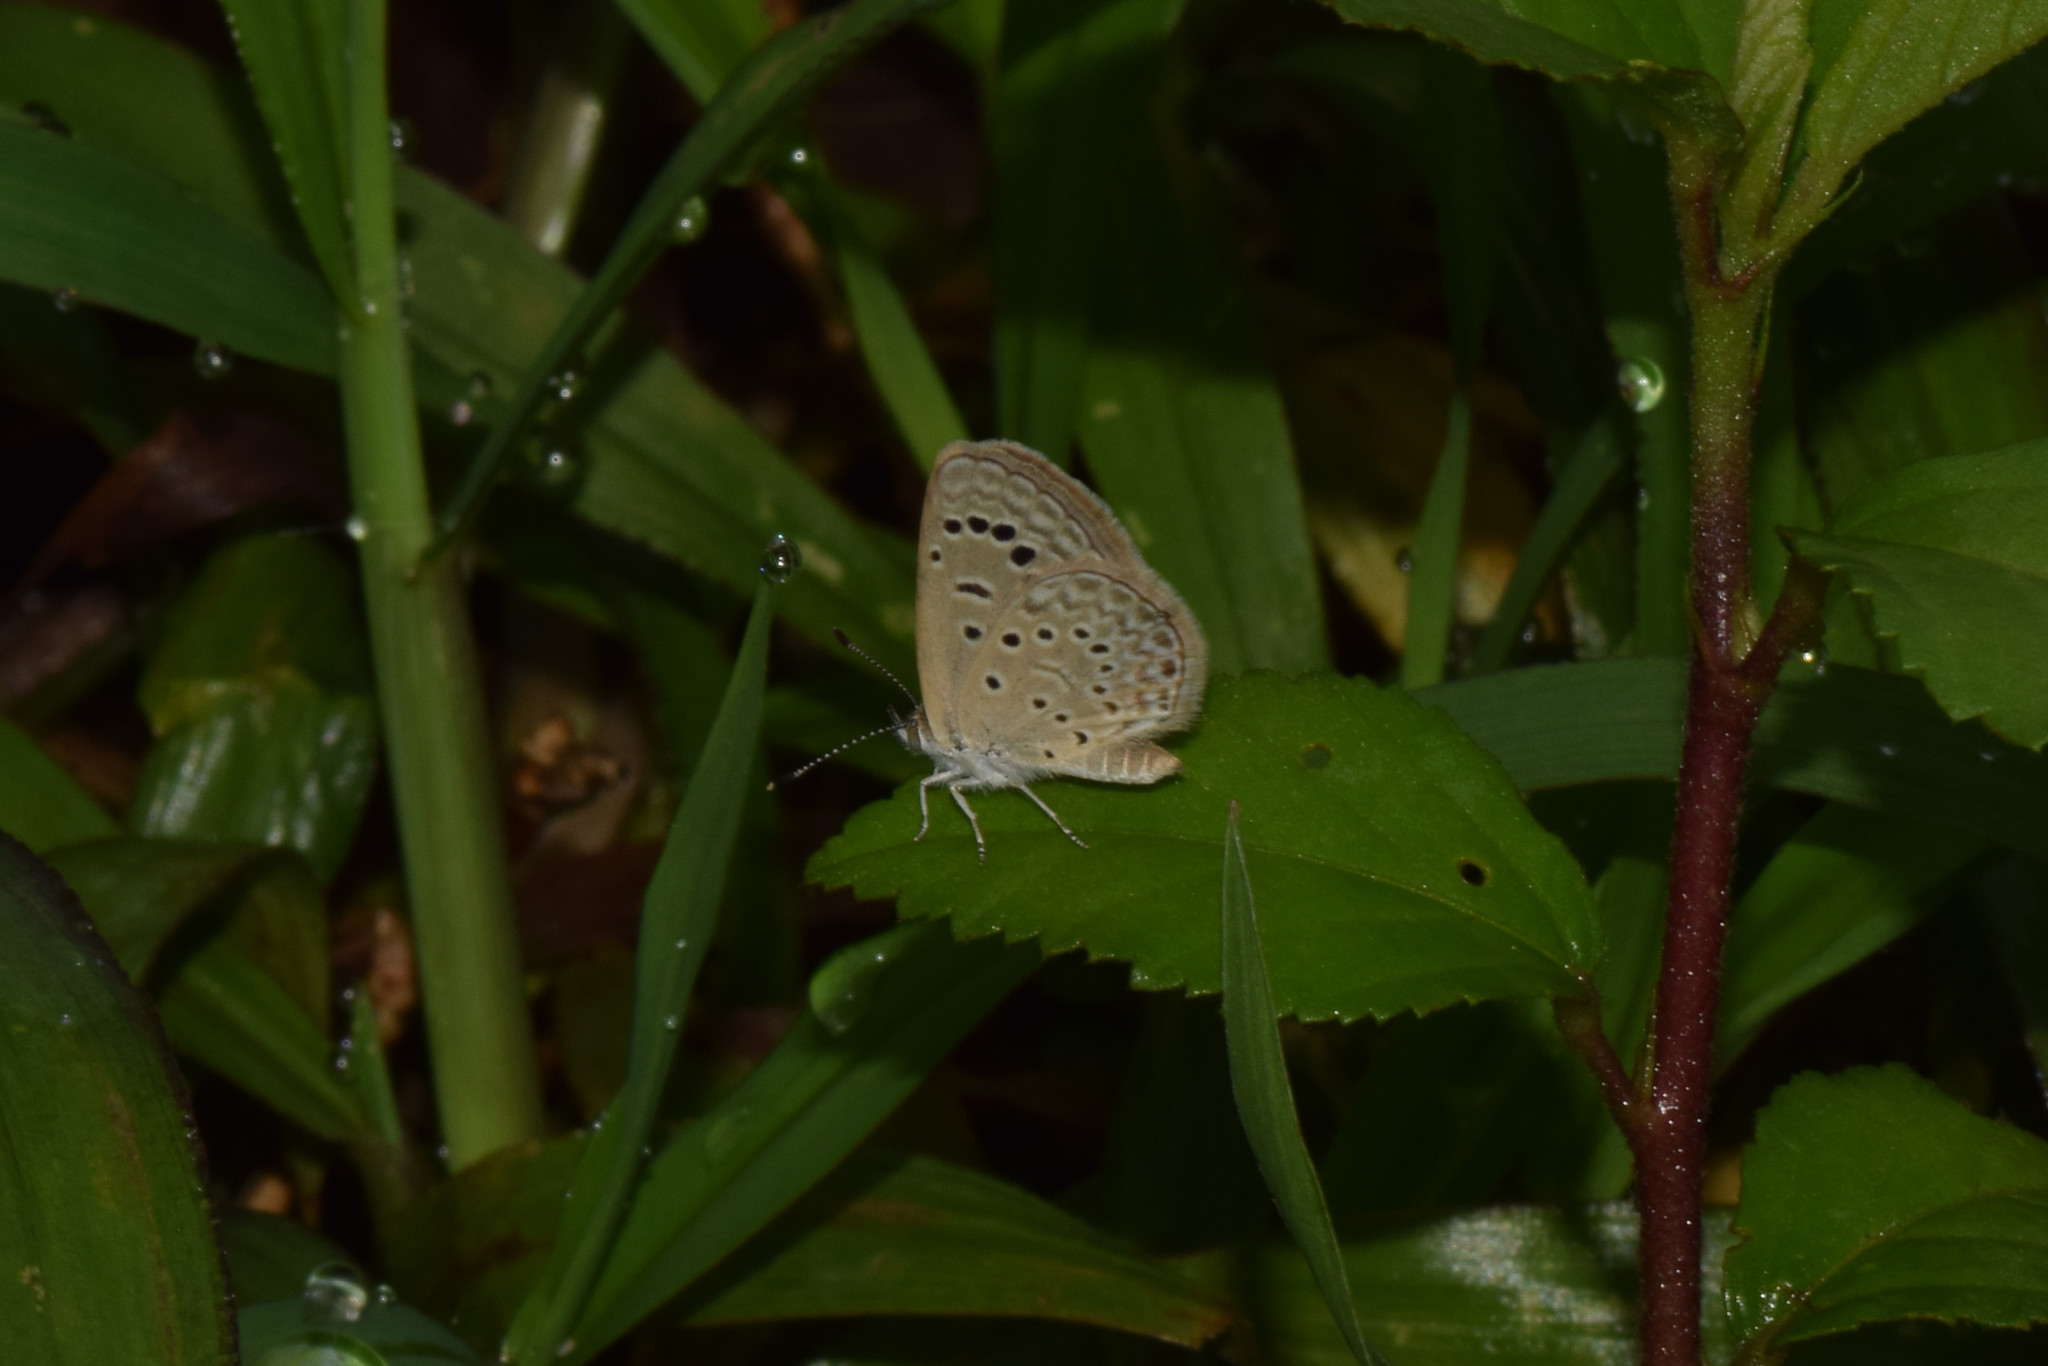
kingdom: Animalia
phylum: Arthropoda
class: Insecta
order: Lepidoptera
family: Lycaenidae
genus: Zizeeria
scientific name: Zizeeria karsandra
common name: Dark grass blue
